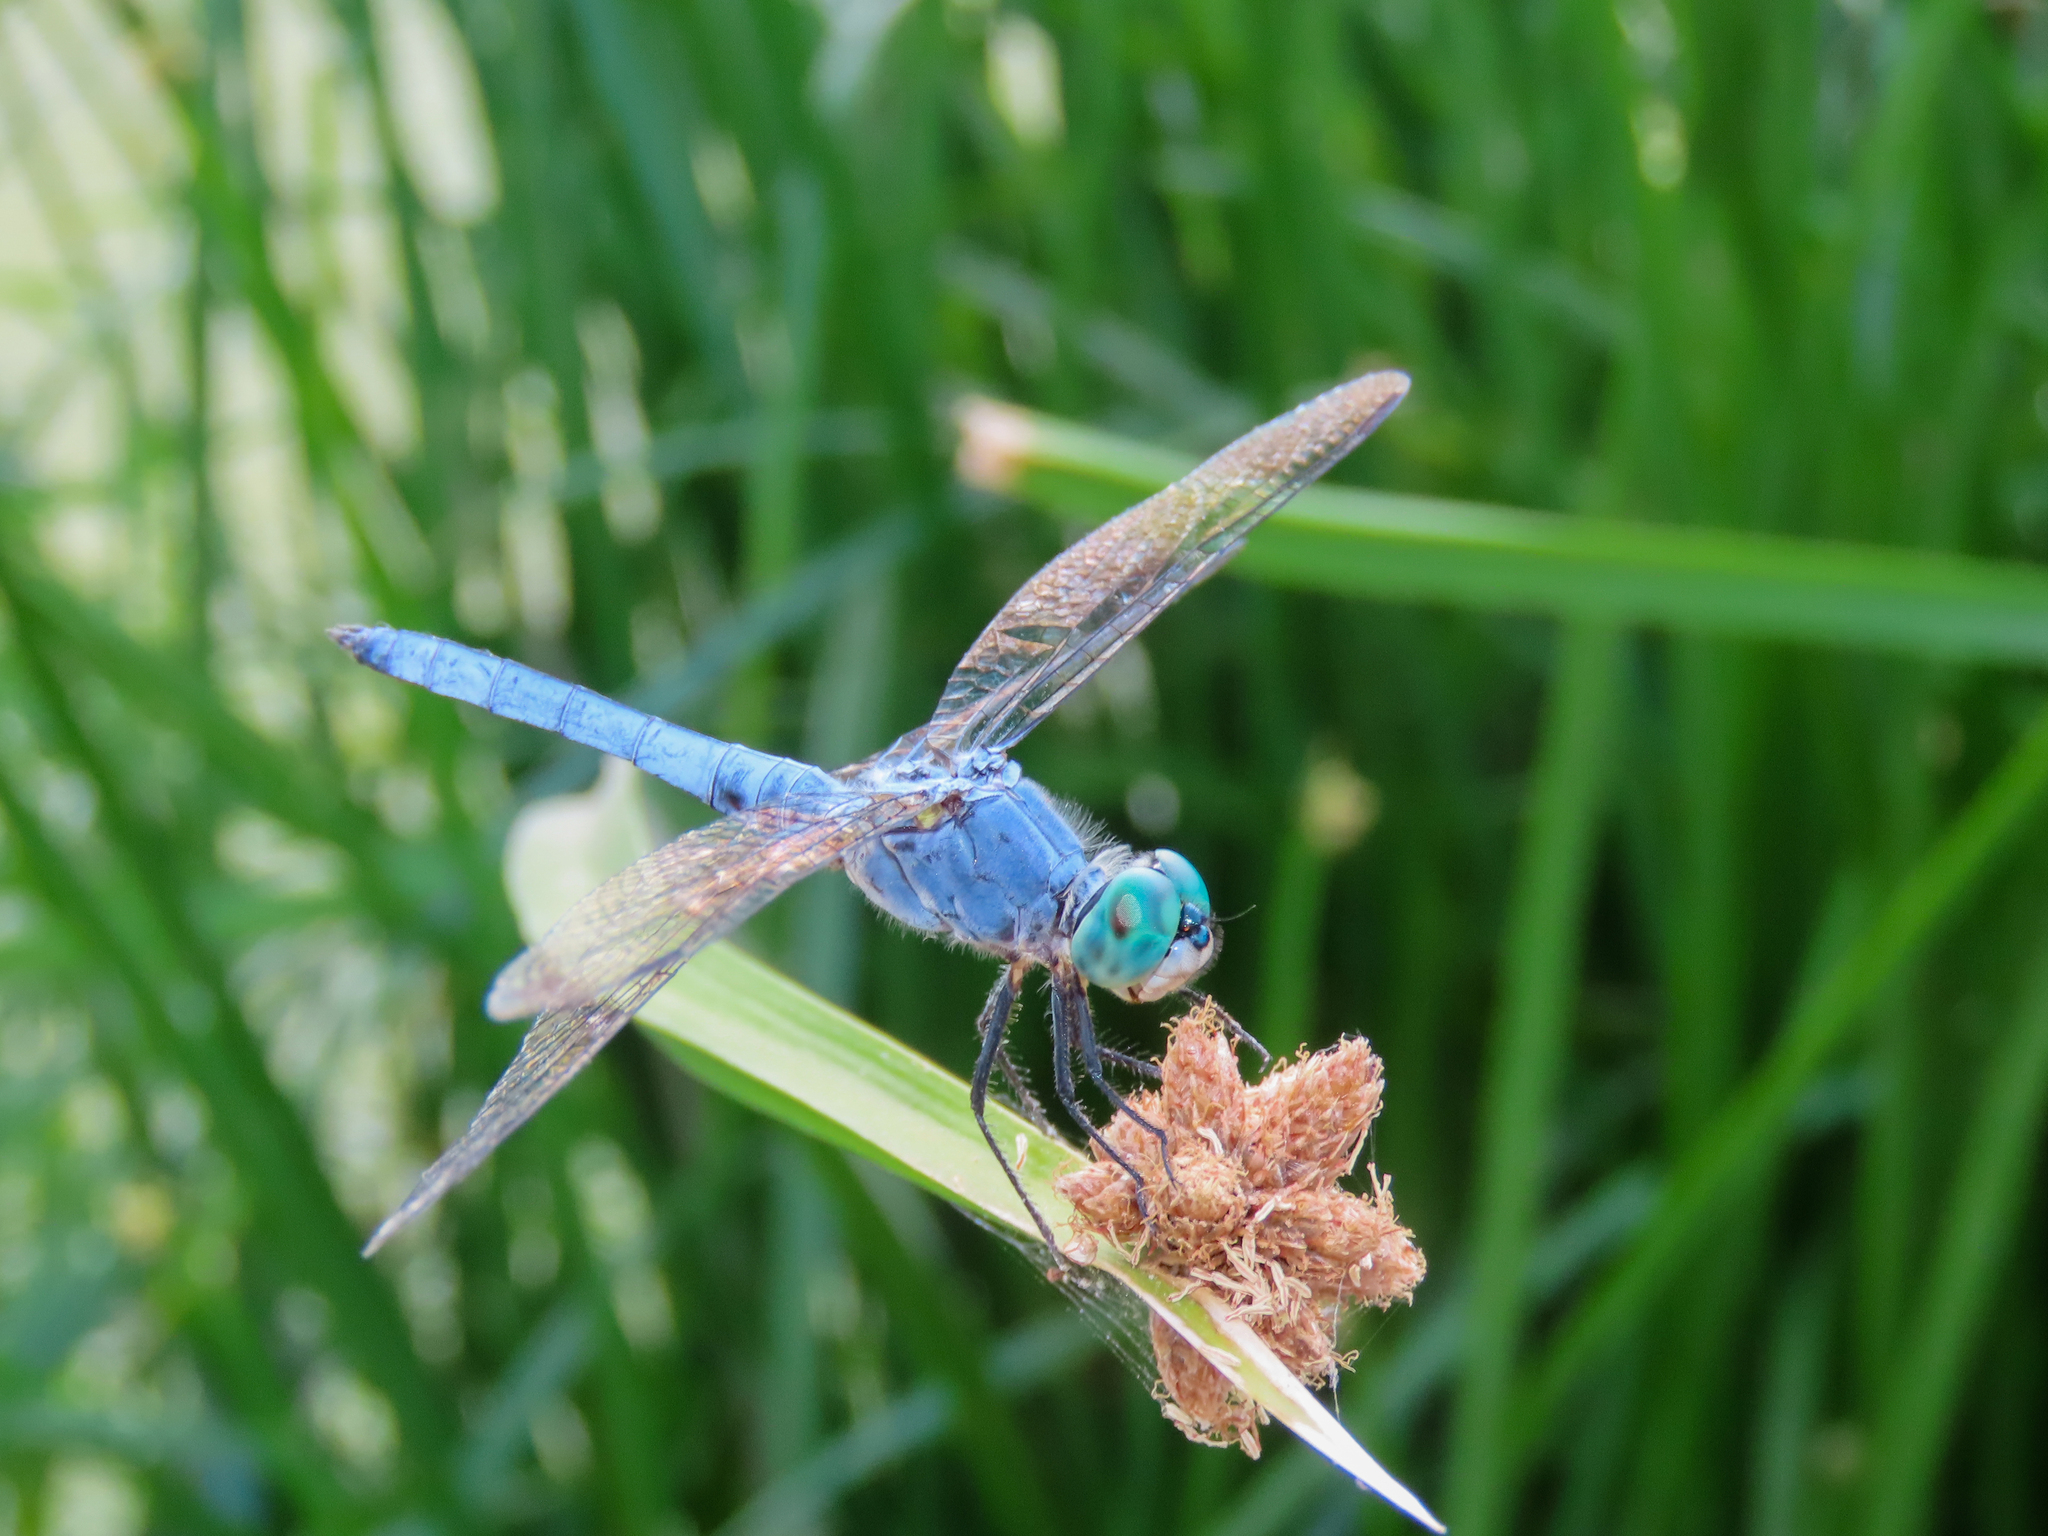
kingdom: Animalia
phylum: Arthropoda
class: Insecta
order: Odonata
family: Libellulidae
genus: Pachydiplax
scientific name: Pachydiplax longipennis
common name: Blue dasher
